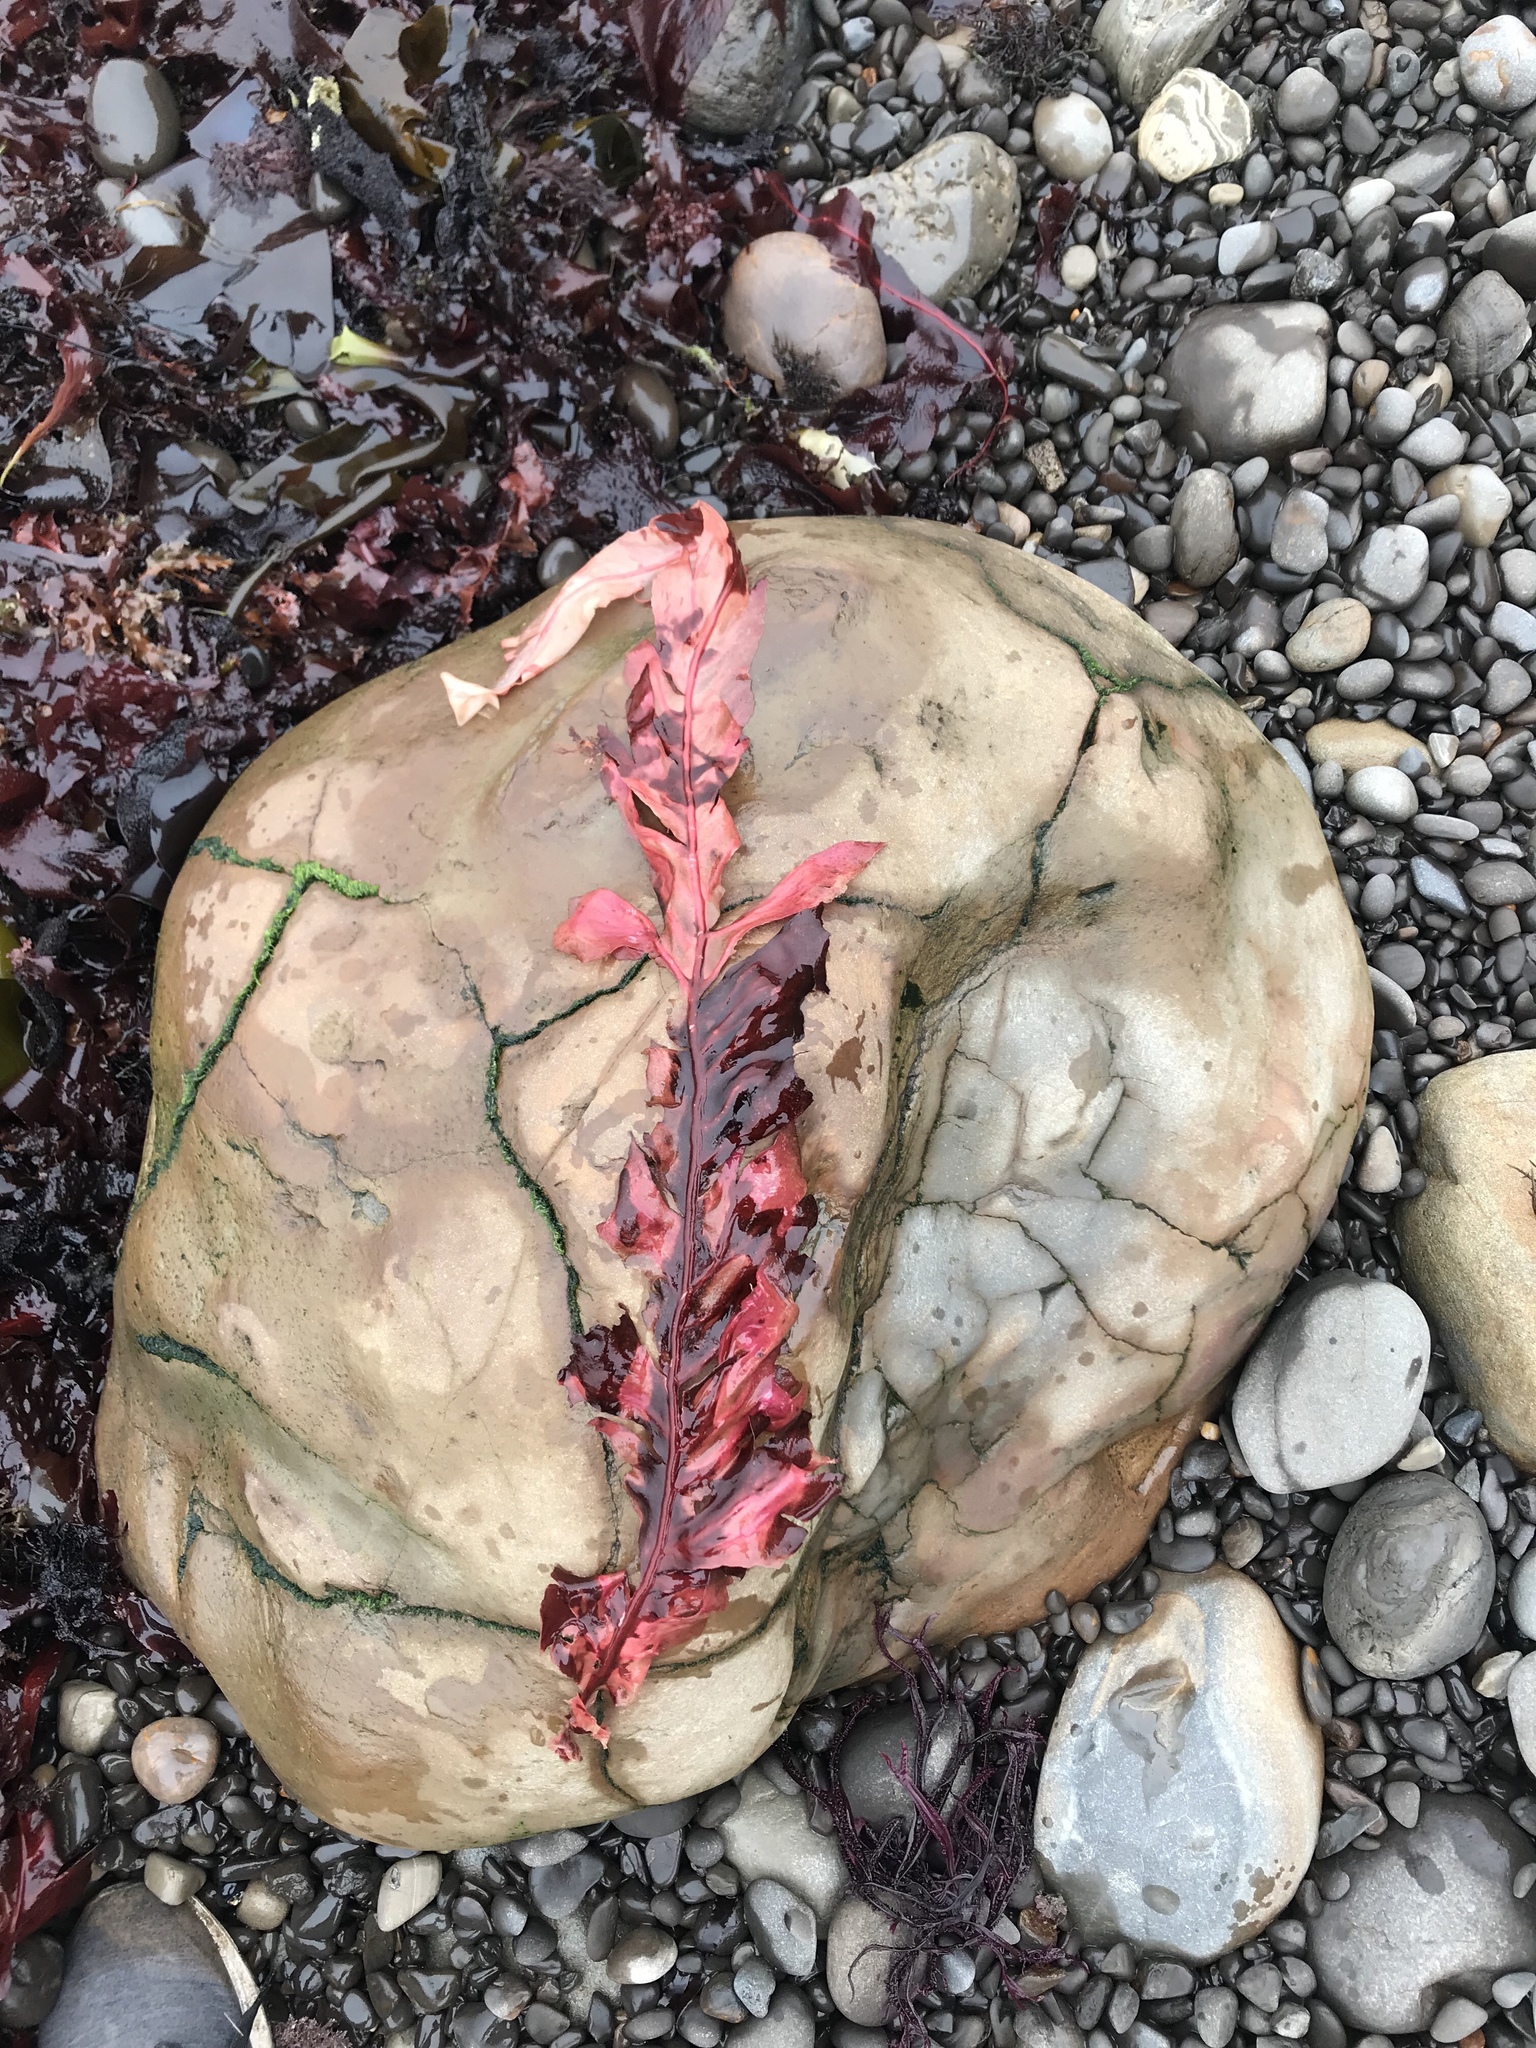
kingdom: Plantae
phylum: Rhodophyta
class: Florideophyceae
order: Gigartinales
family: Kallymeniaceae
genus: Erythrophyllum
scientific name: Erythrophyllum delesserioides
